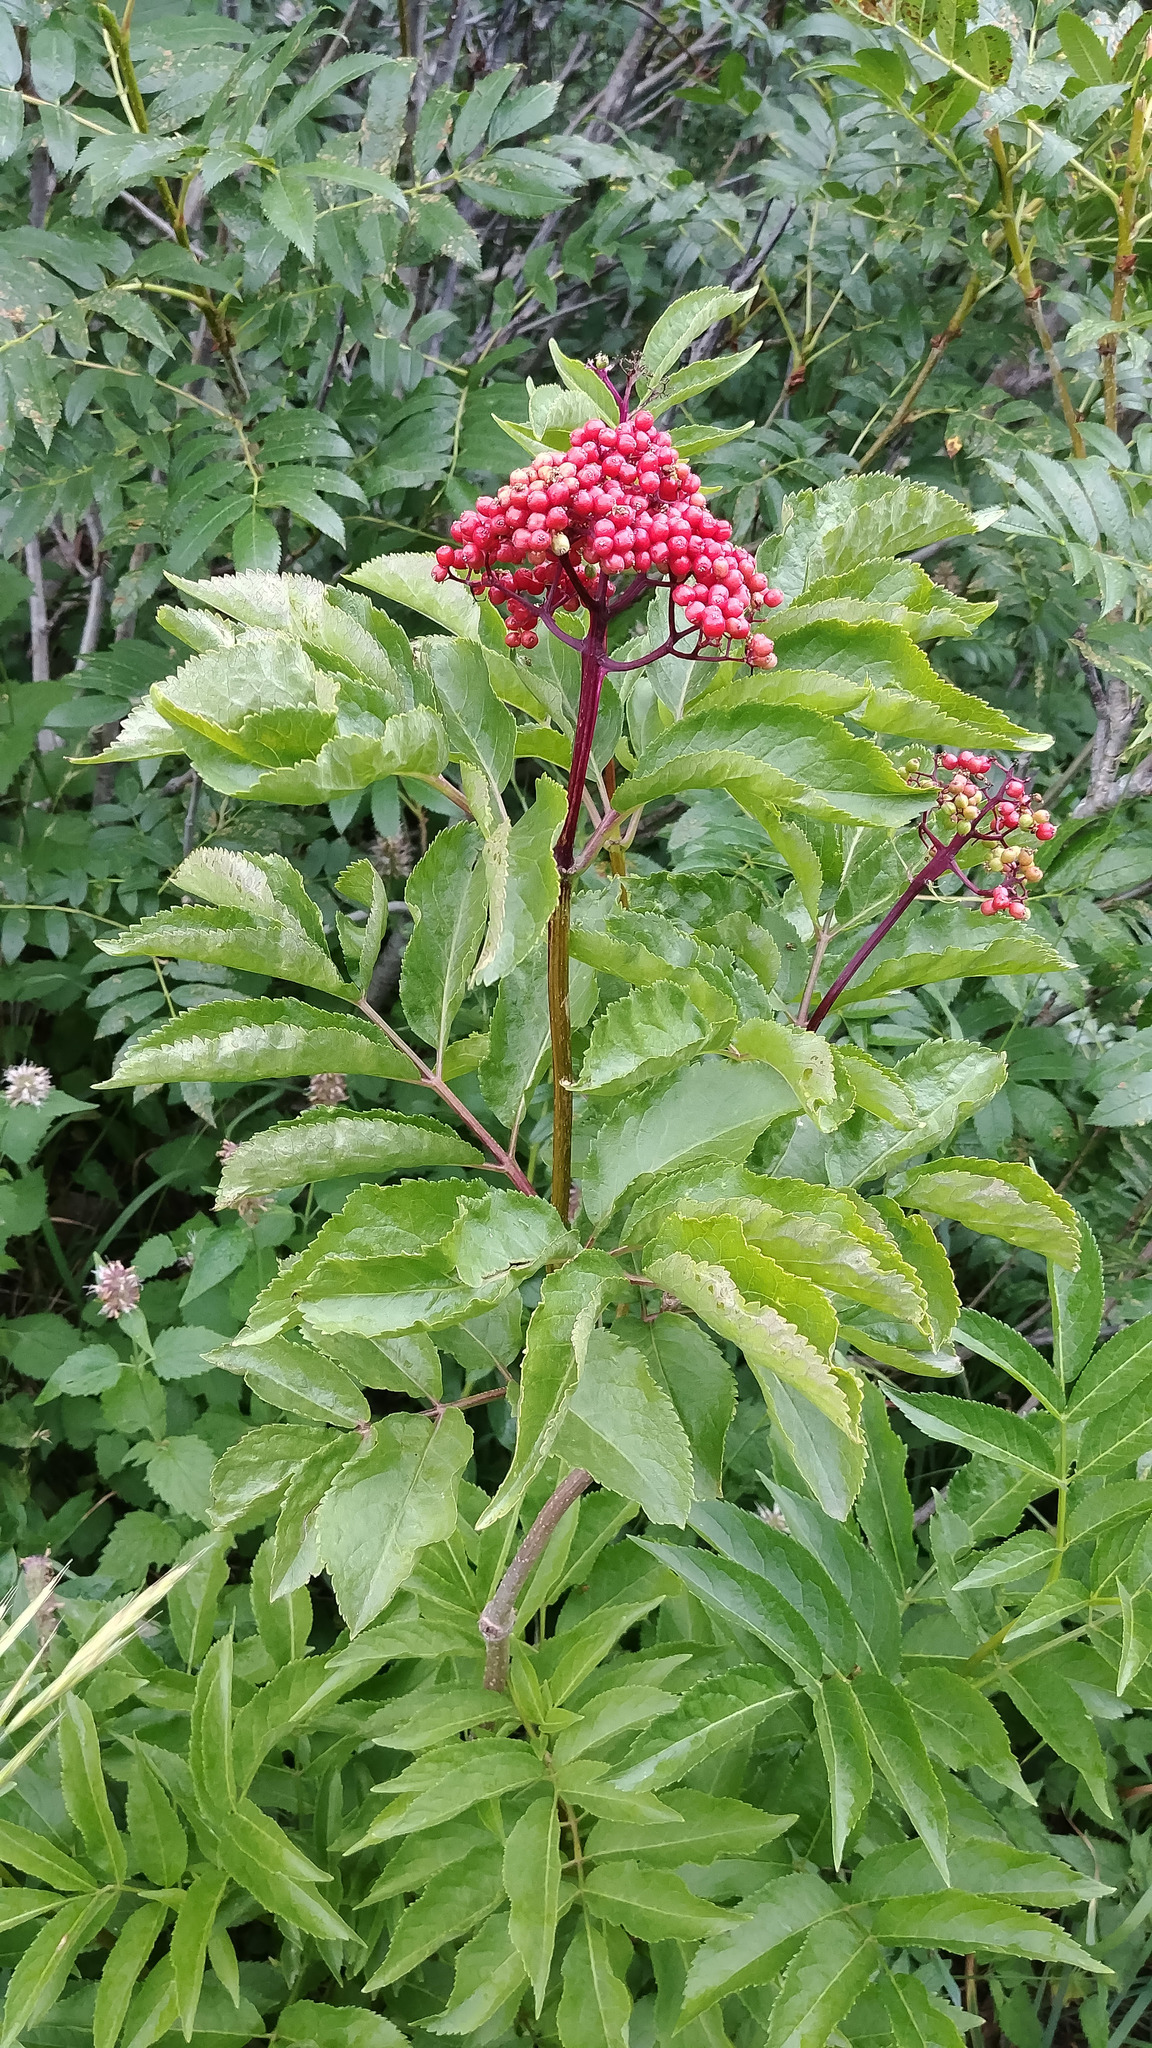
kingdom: Plantae
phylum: Tracheophyta
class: Magnoliopsida
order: Dipsacales
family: Viburnaceae
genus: Sambucus
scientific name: Sambucus racemosa
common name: Red-berried elder
